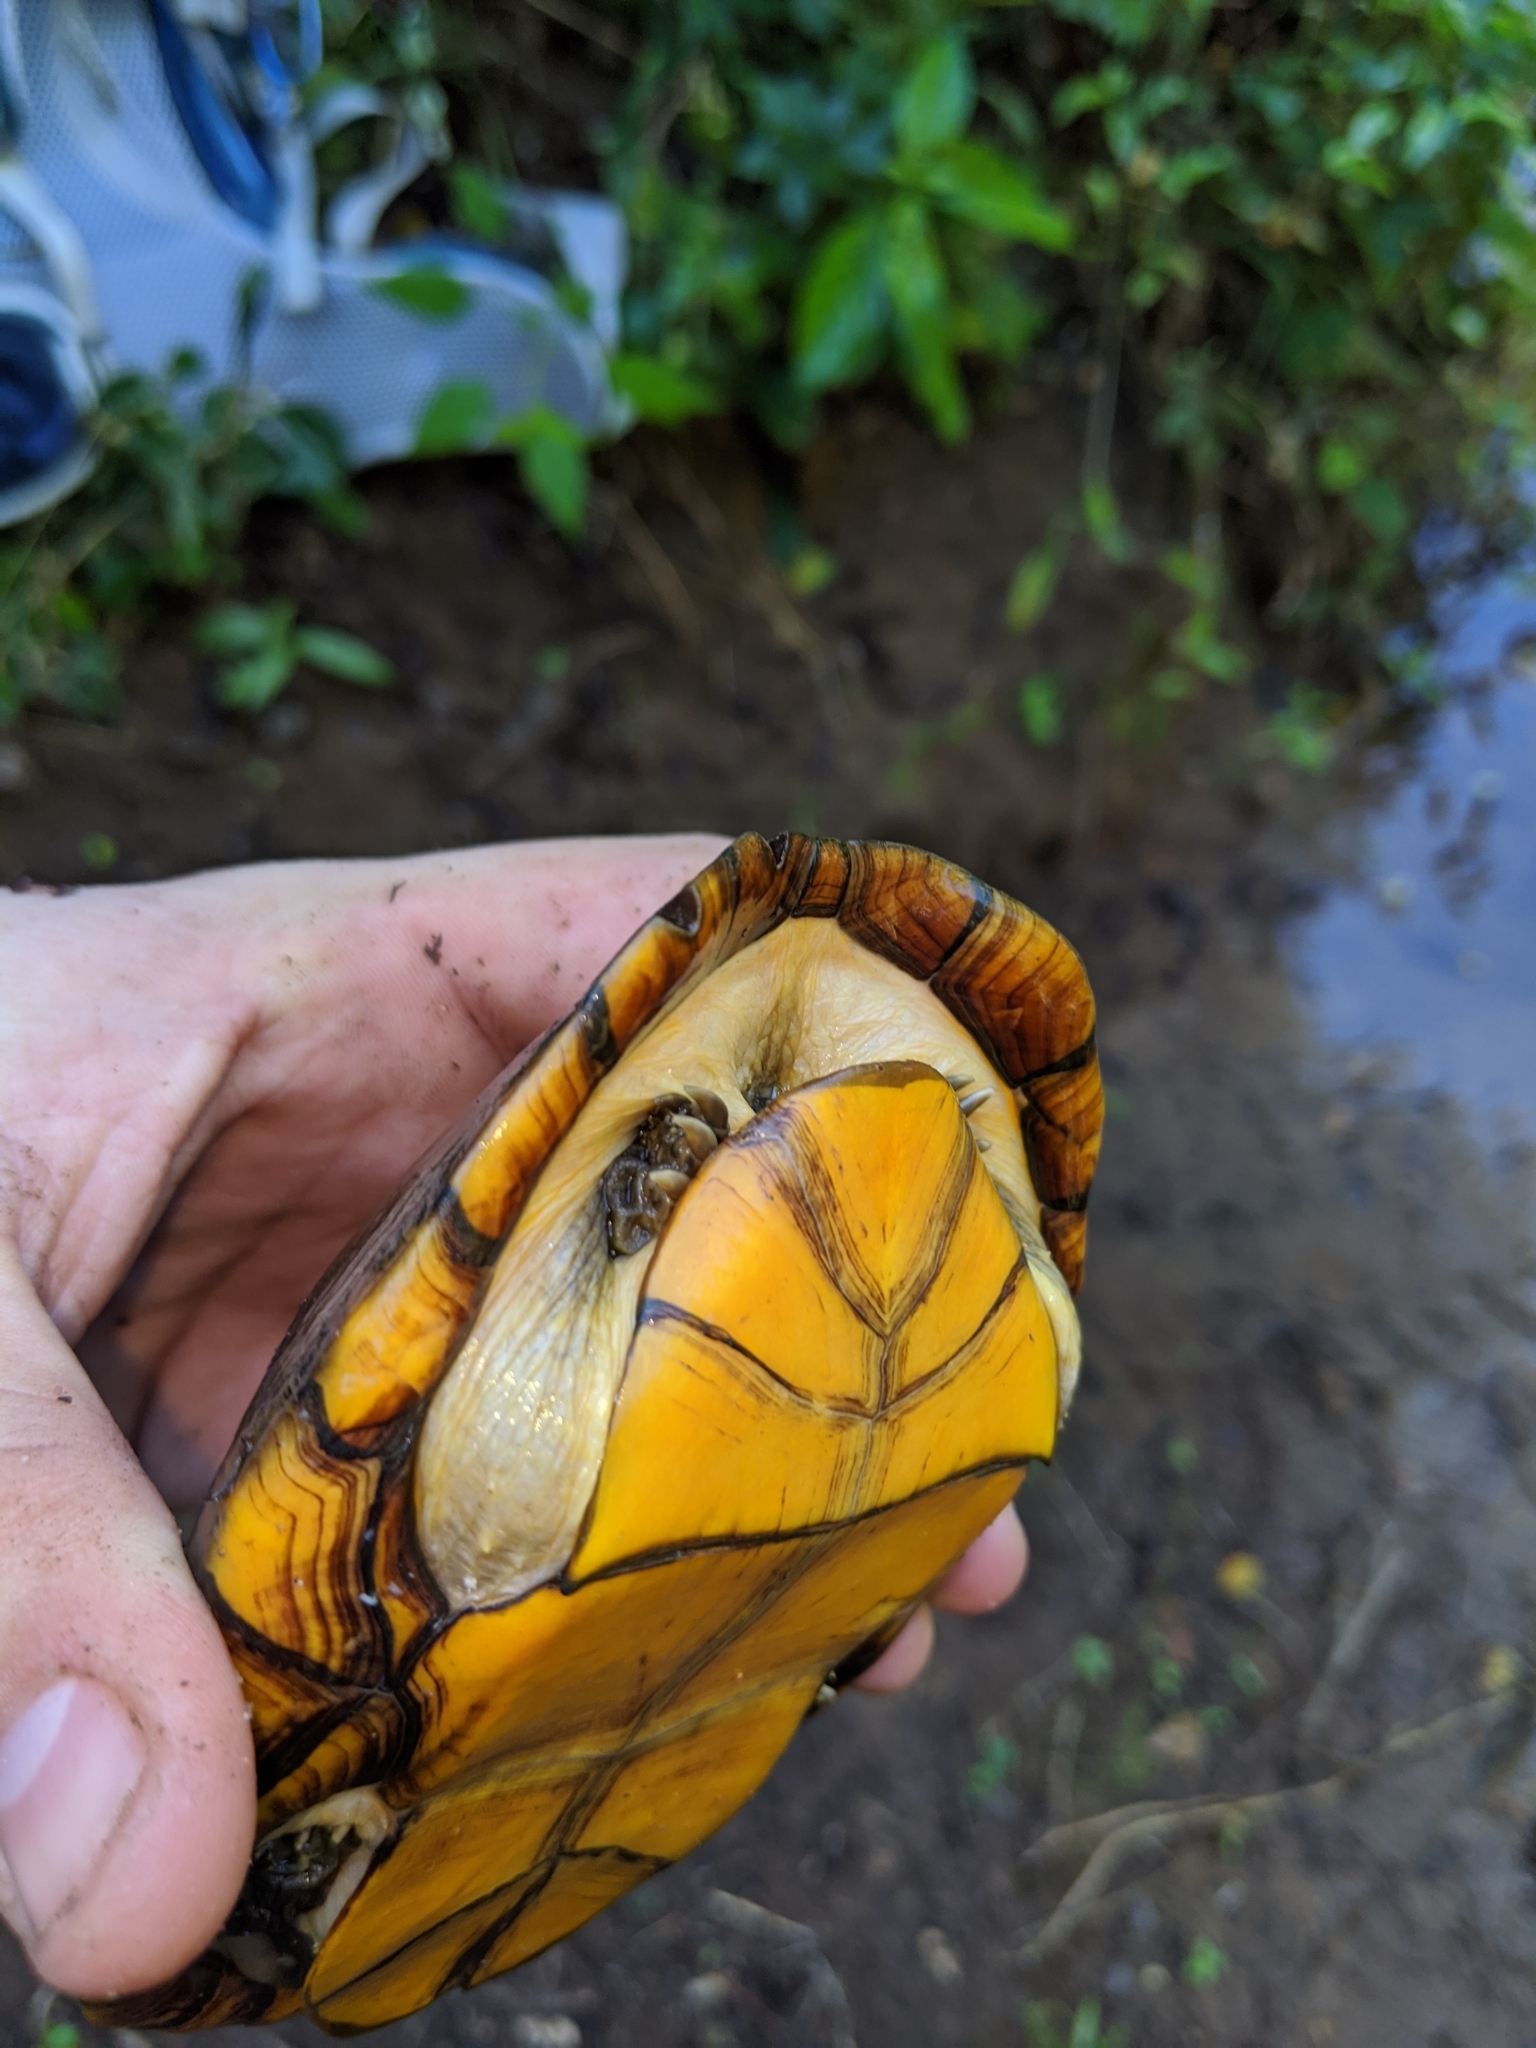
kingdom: Animalia
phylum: Chordata
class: Testudines
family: Kinosternidae
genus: Kinosternon
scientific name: Kinosternon chimalhuaca
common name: Jalisco mud turtle
